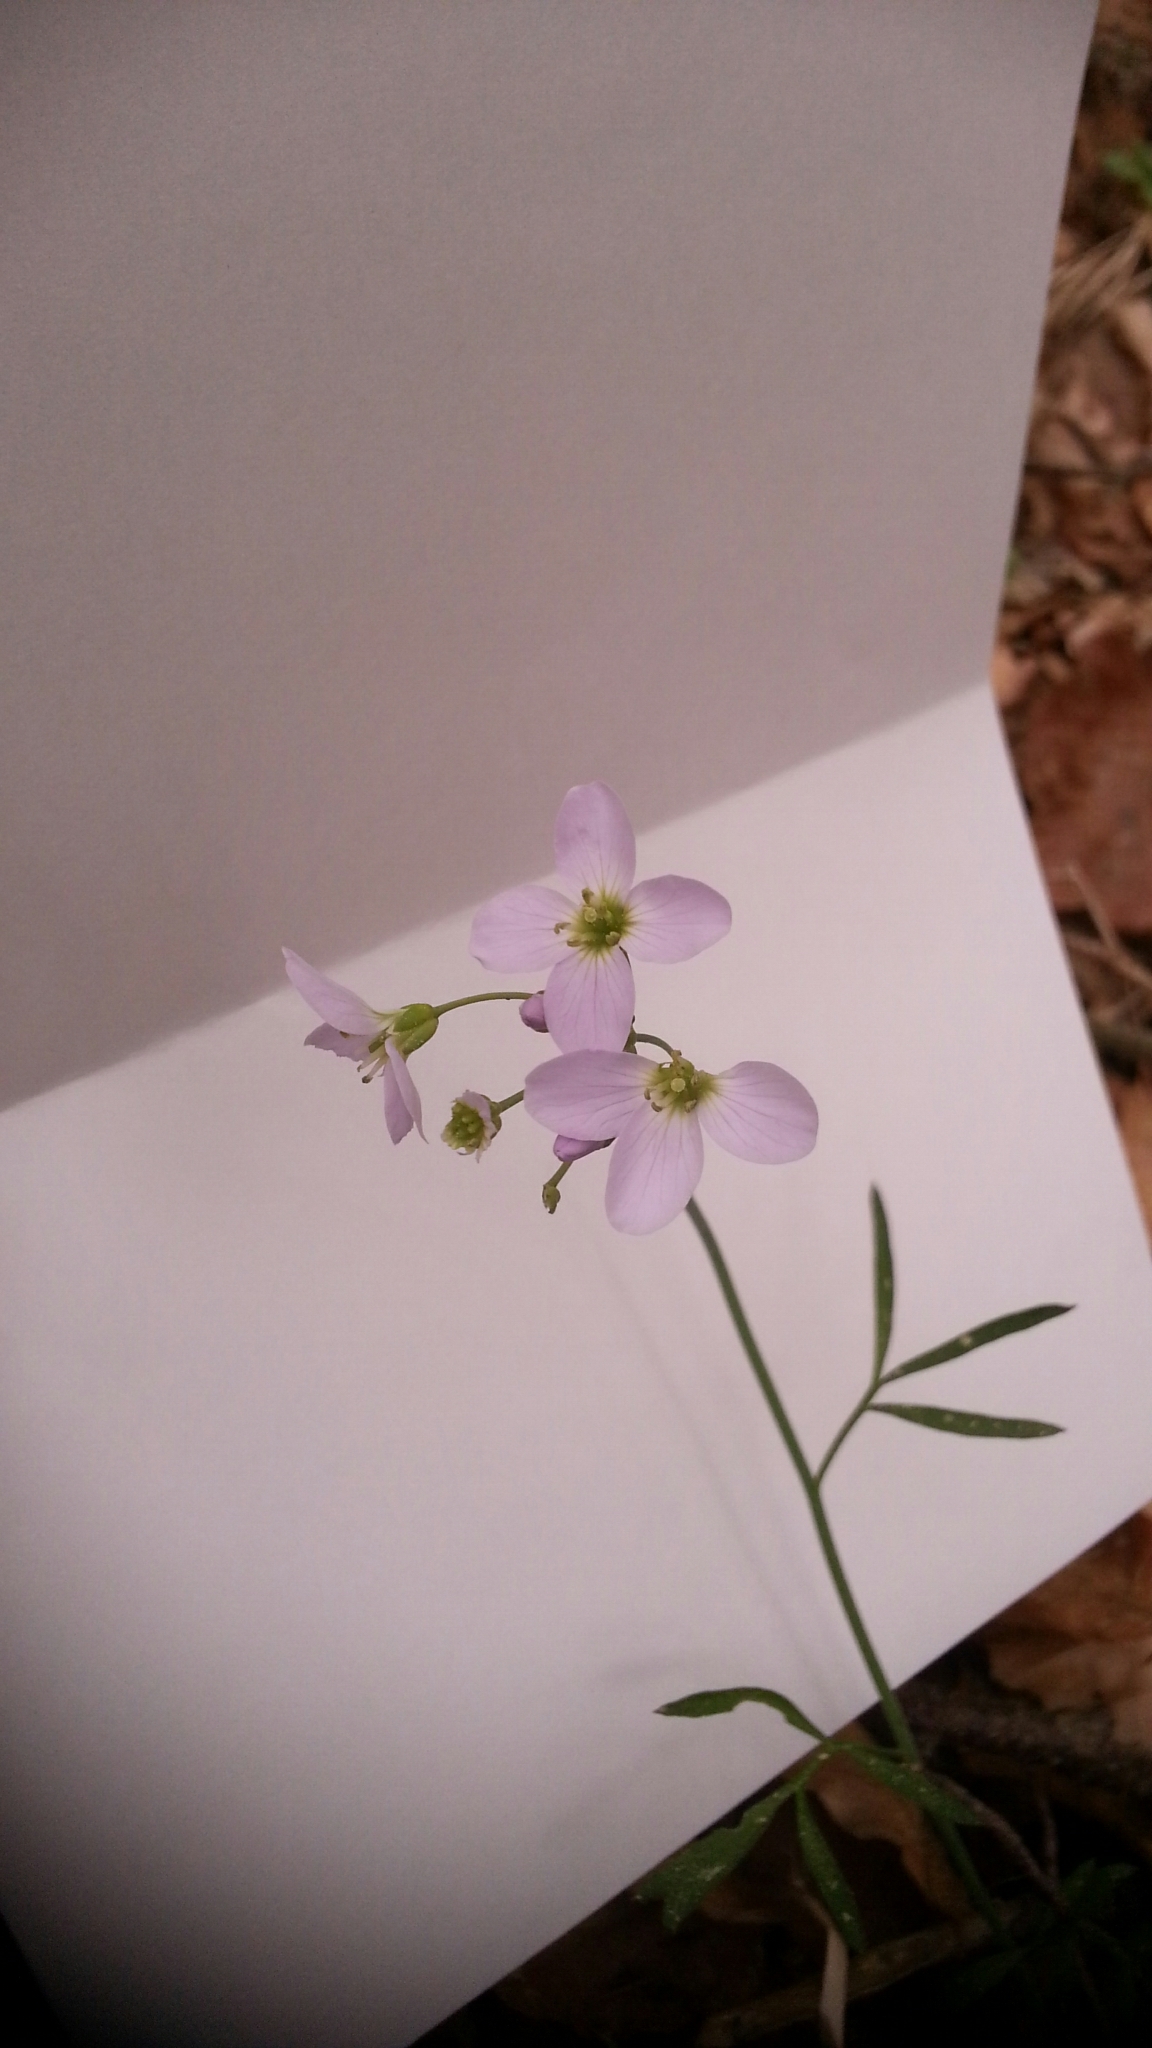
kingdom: Plantae
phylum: Tracheophyta
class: Magnoliopsida
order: Brassicales
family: Brassicaceae
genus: Cardamine
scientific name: Cardamine pratensis
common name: Cuckoo flower
